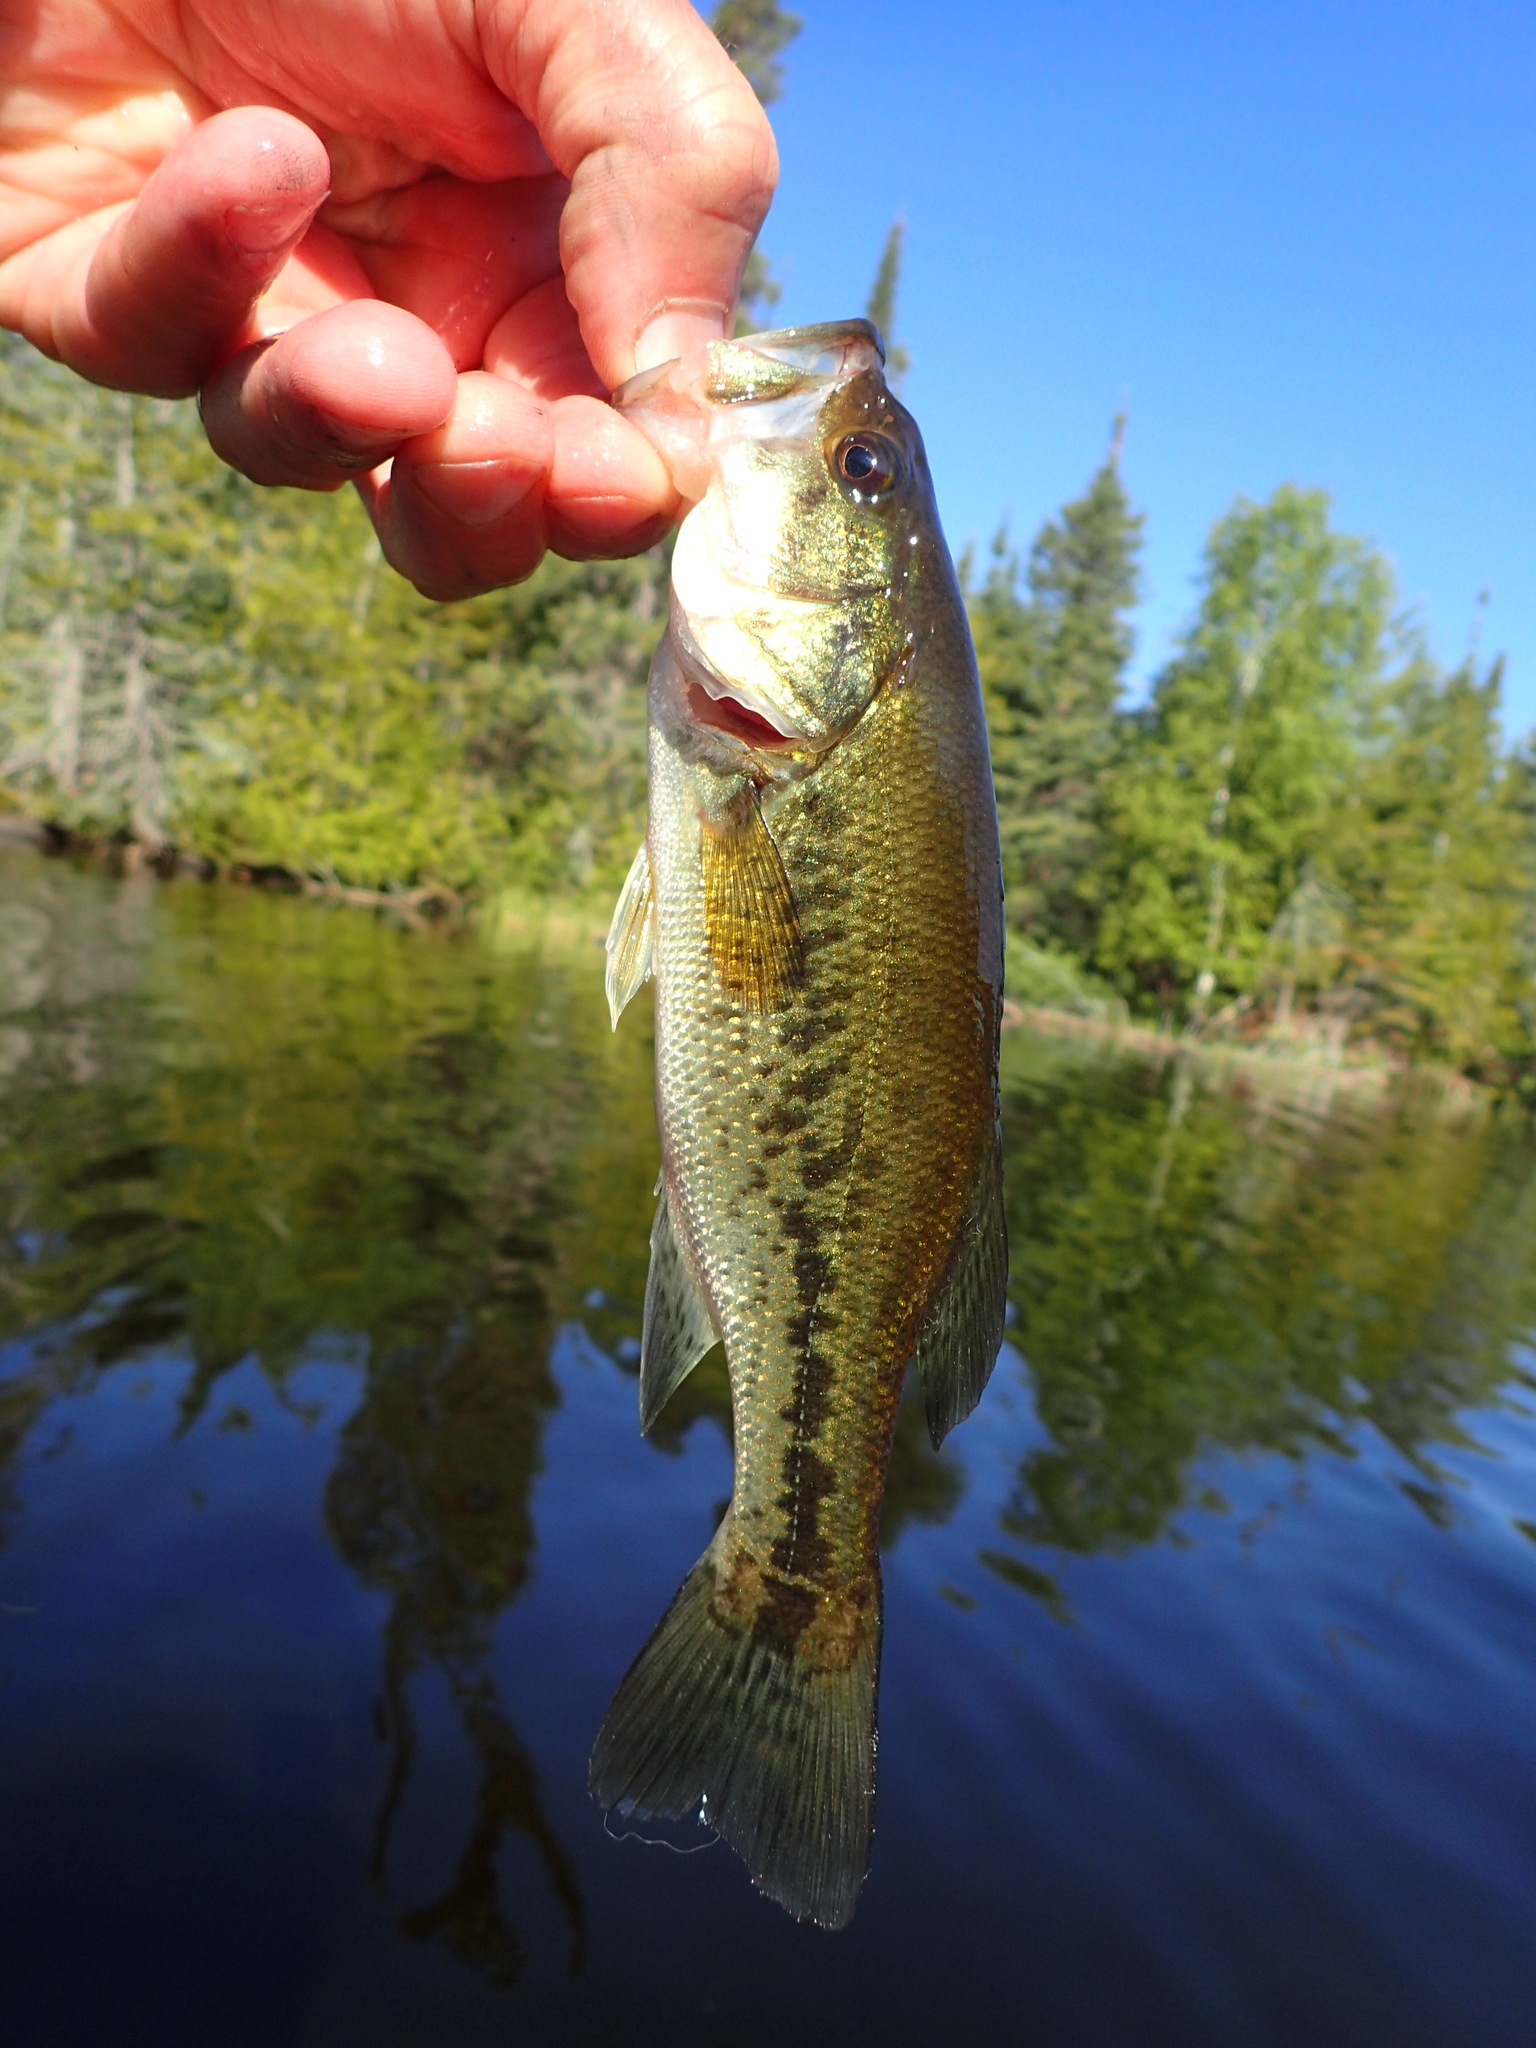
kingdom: Animalia
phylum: Chordata
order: Perciformes
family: Centrarchidae
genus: Micropterus
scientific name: Micropterus
